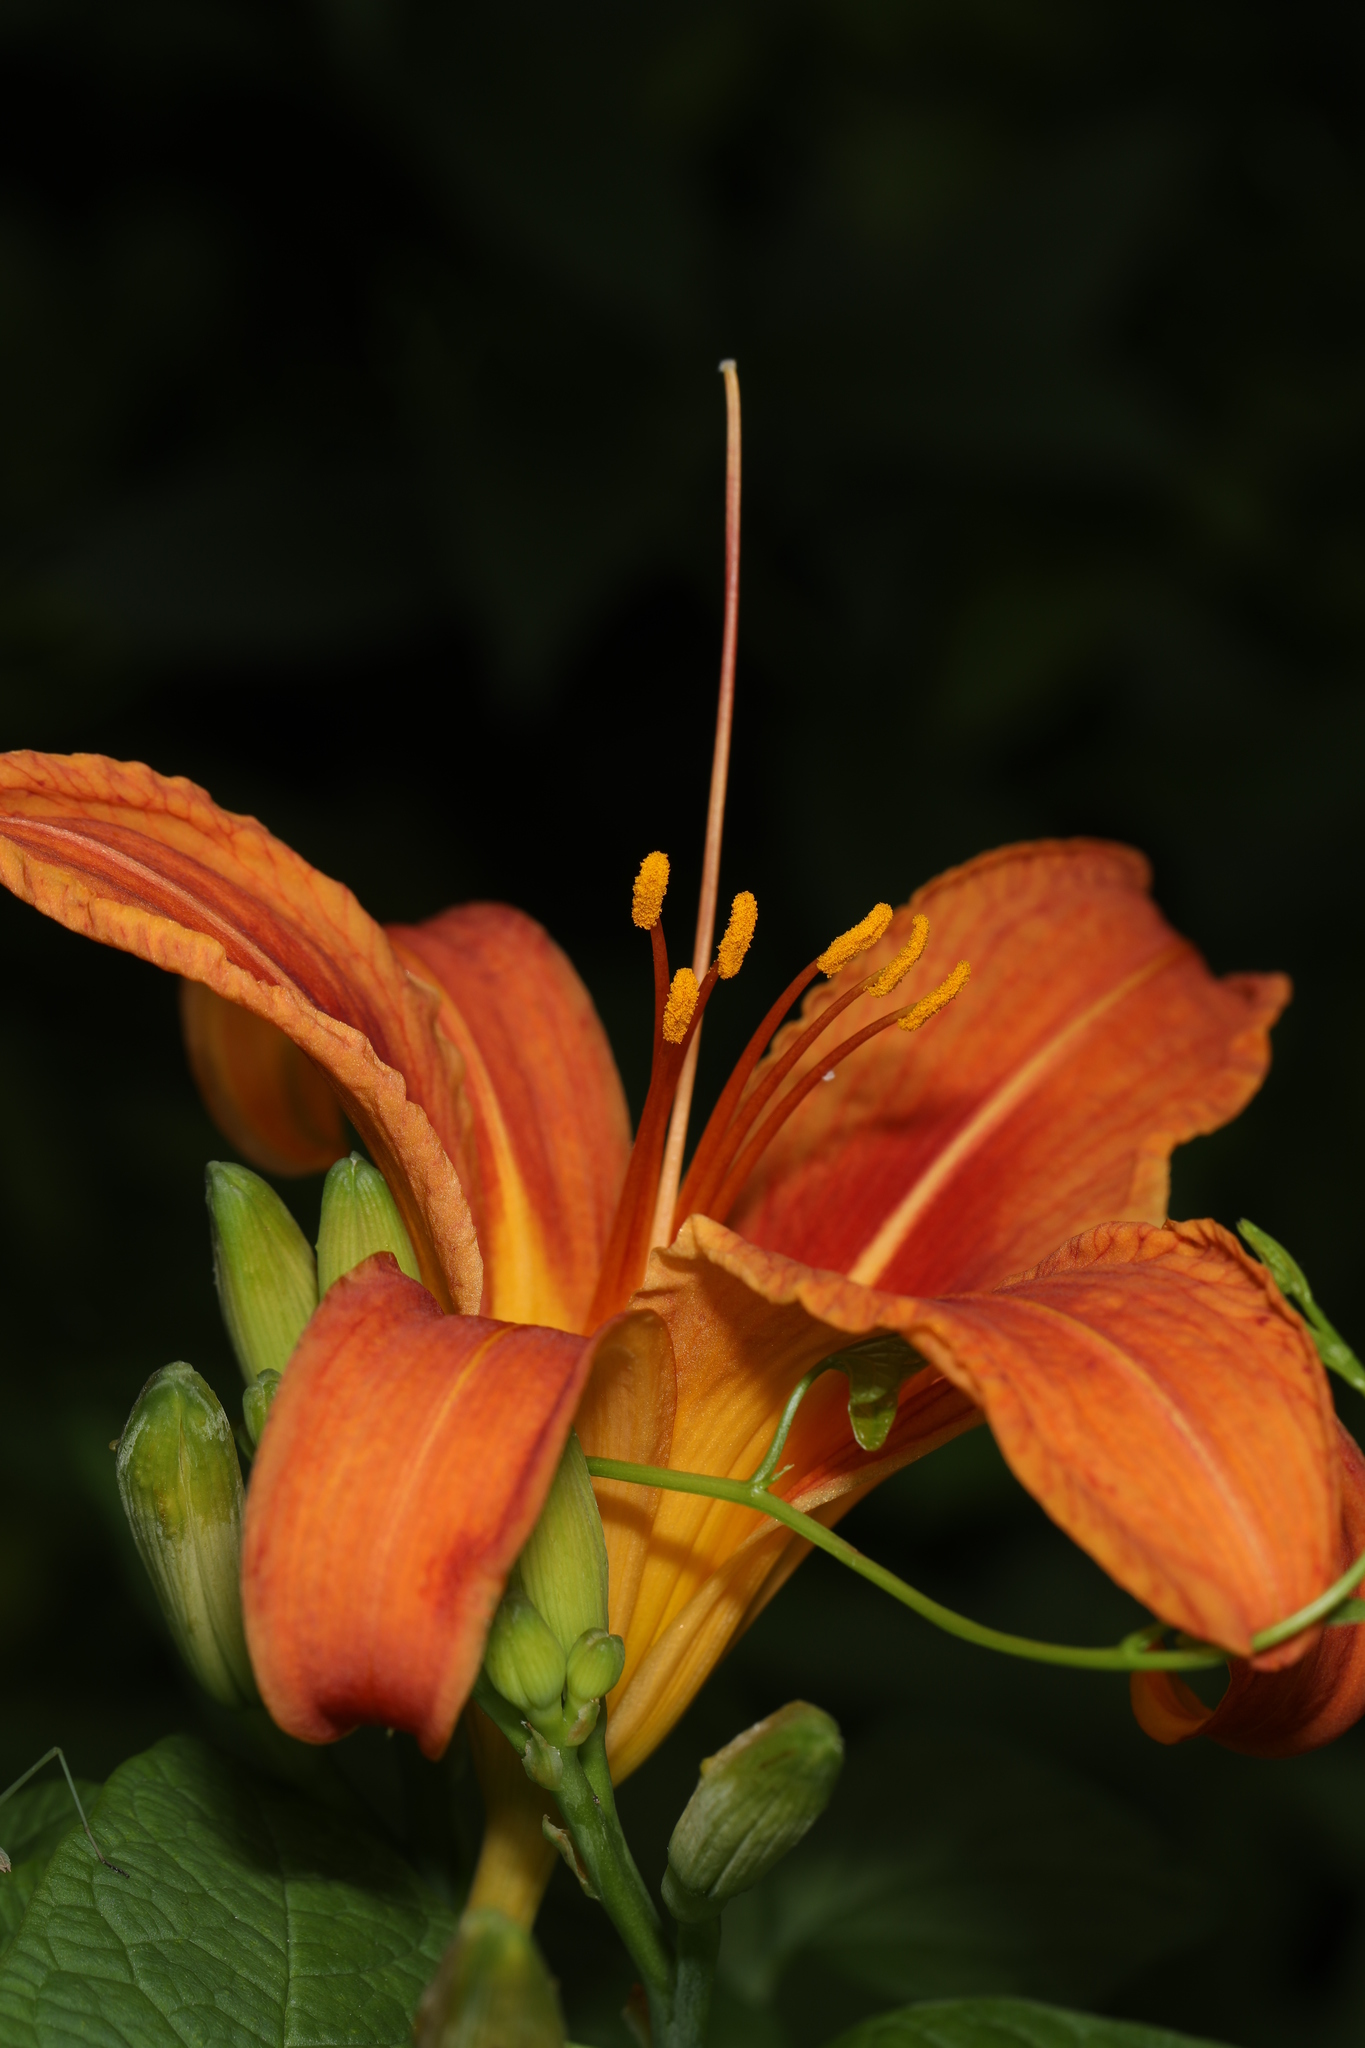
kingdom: Plantae
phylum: Tracheophyta
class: Liliopsida
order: Asparagales
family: Asphodelaceae
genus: Hemerocallis
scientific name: Hemerocallis fulva
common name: Orange day-lily
